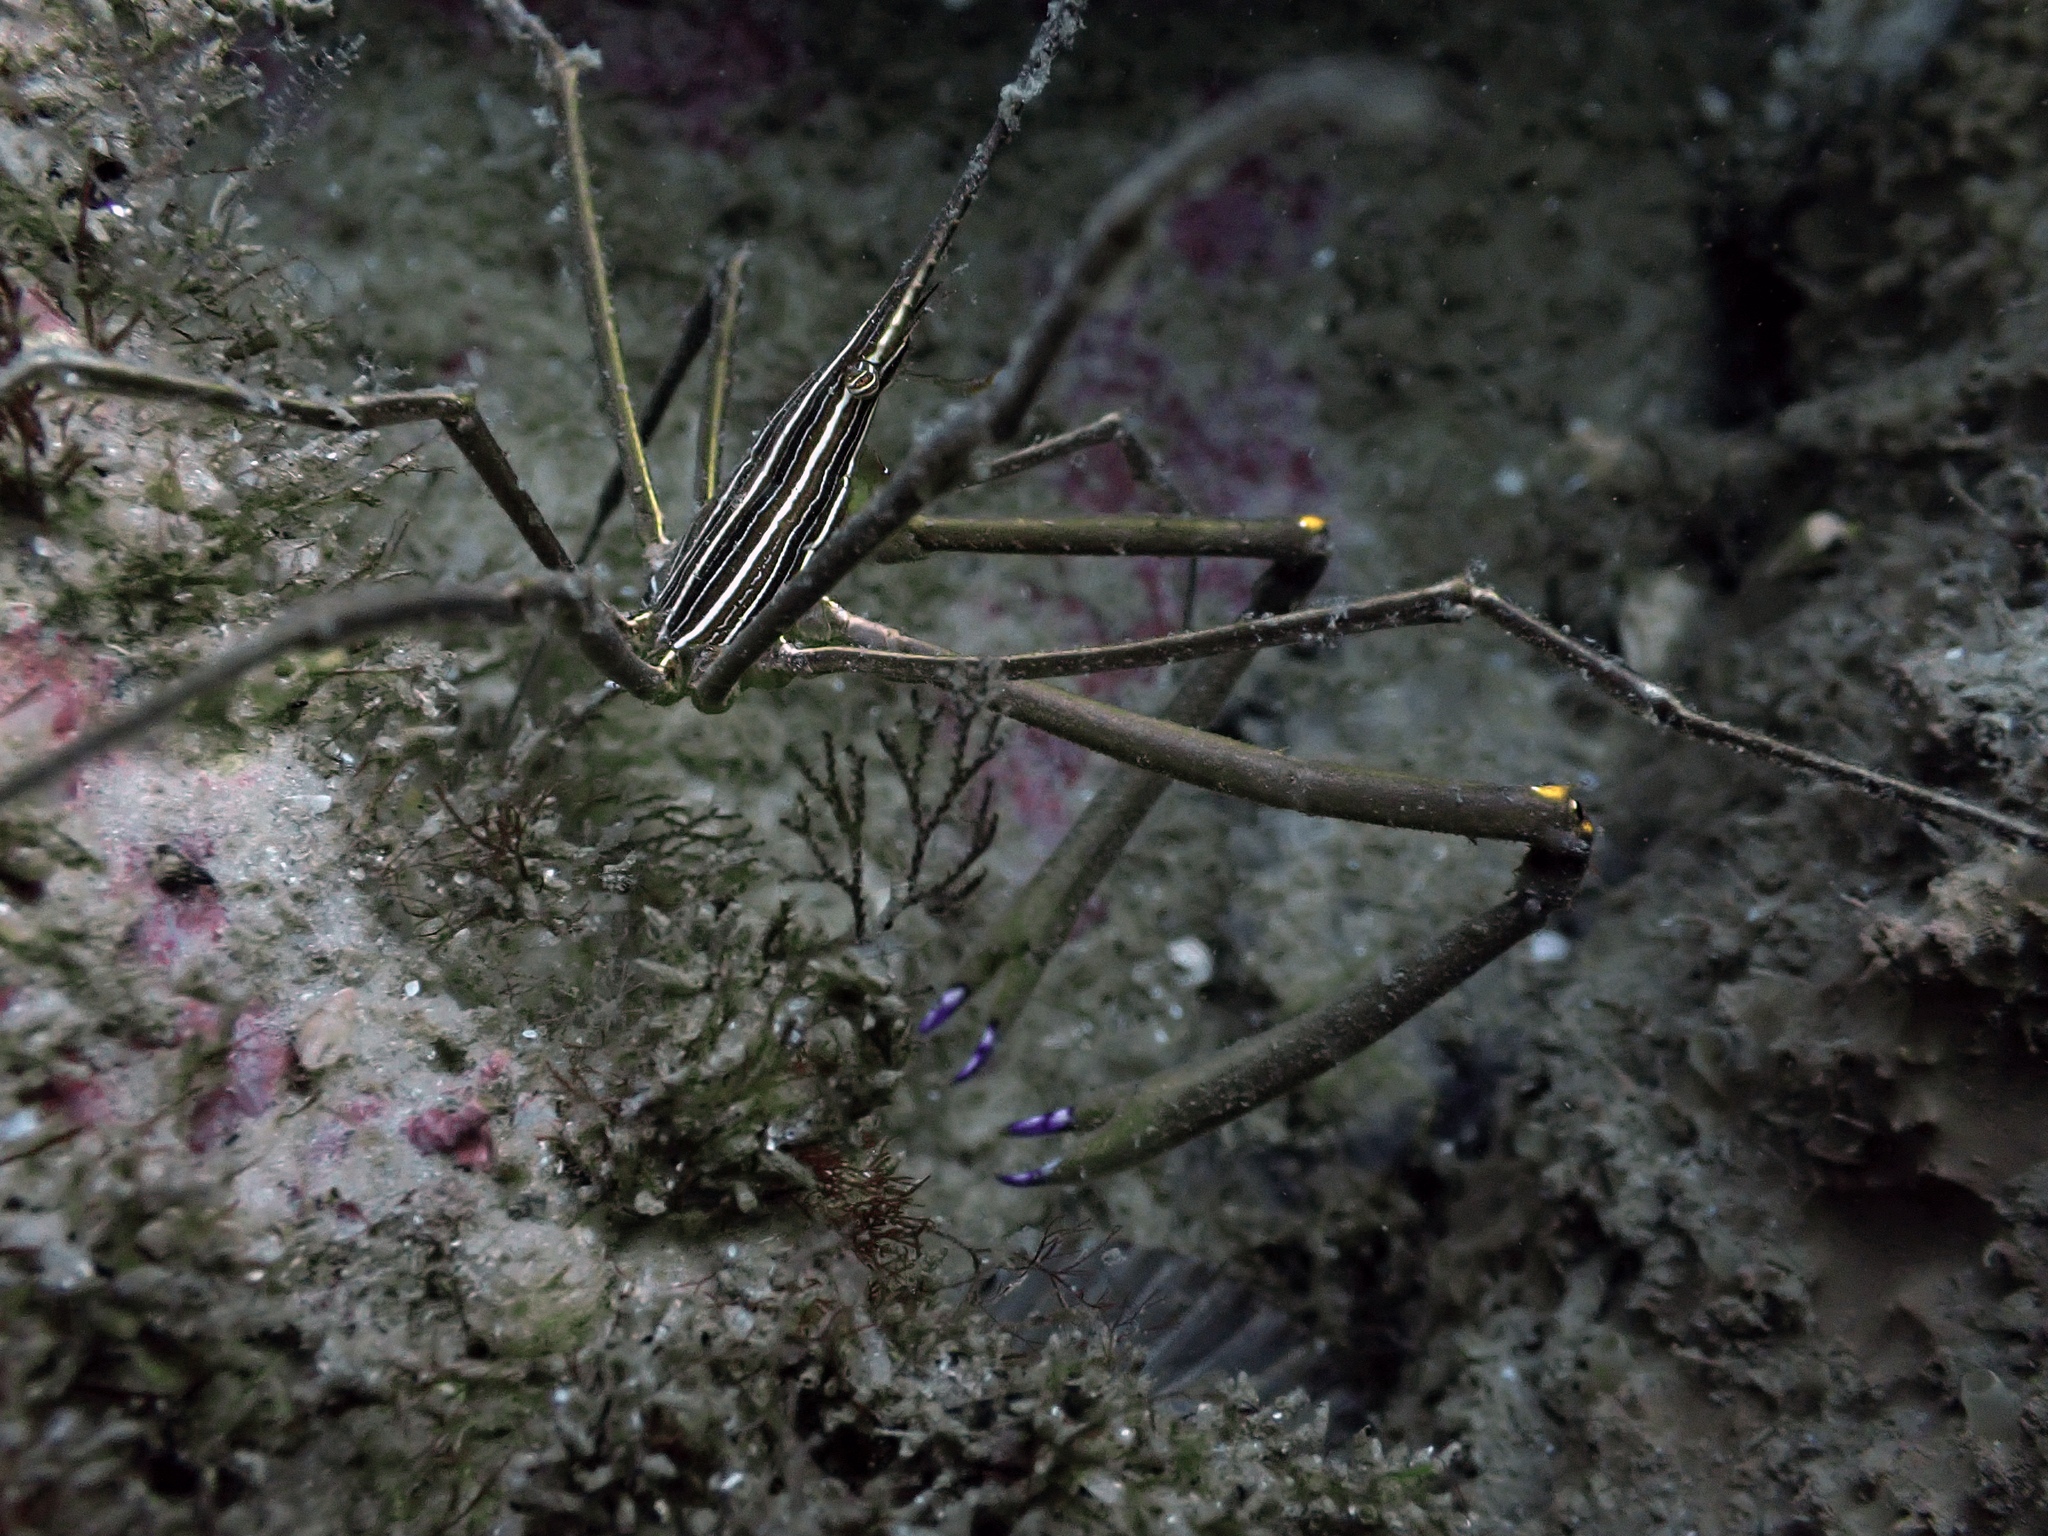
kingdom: Animalia
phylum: Arthropoda
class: Malacostraca
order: Decapoda
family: Inachoididae
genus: Stenorhynchus
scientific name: Stenorhynchus seticornis
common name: Arrow crab
